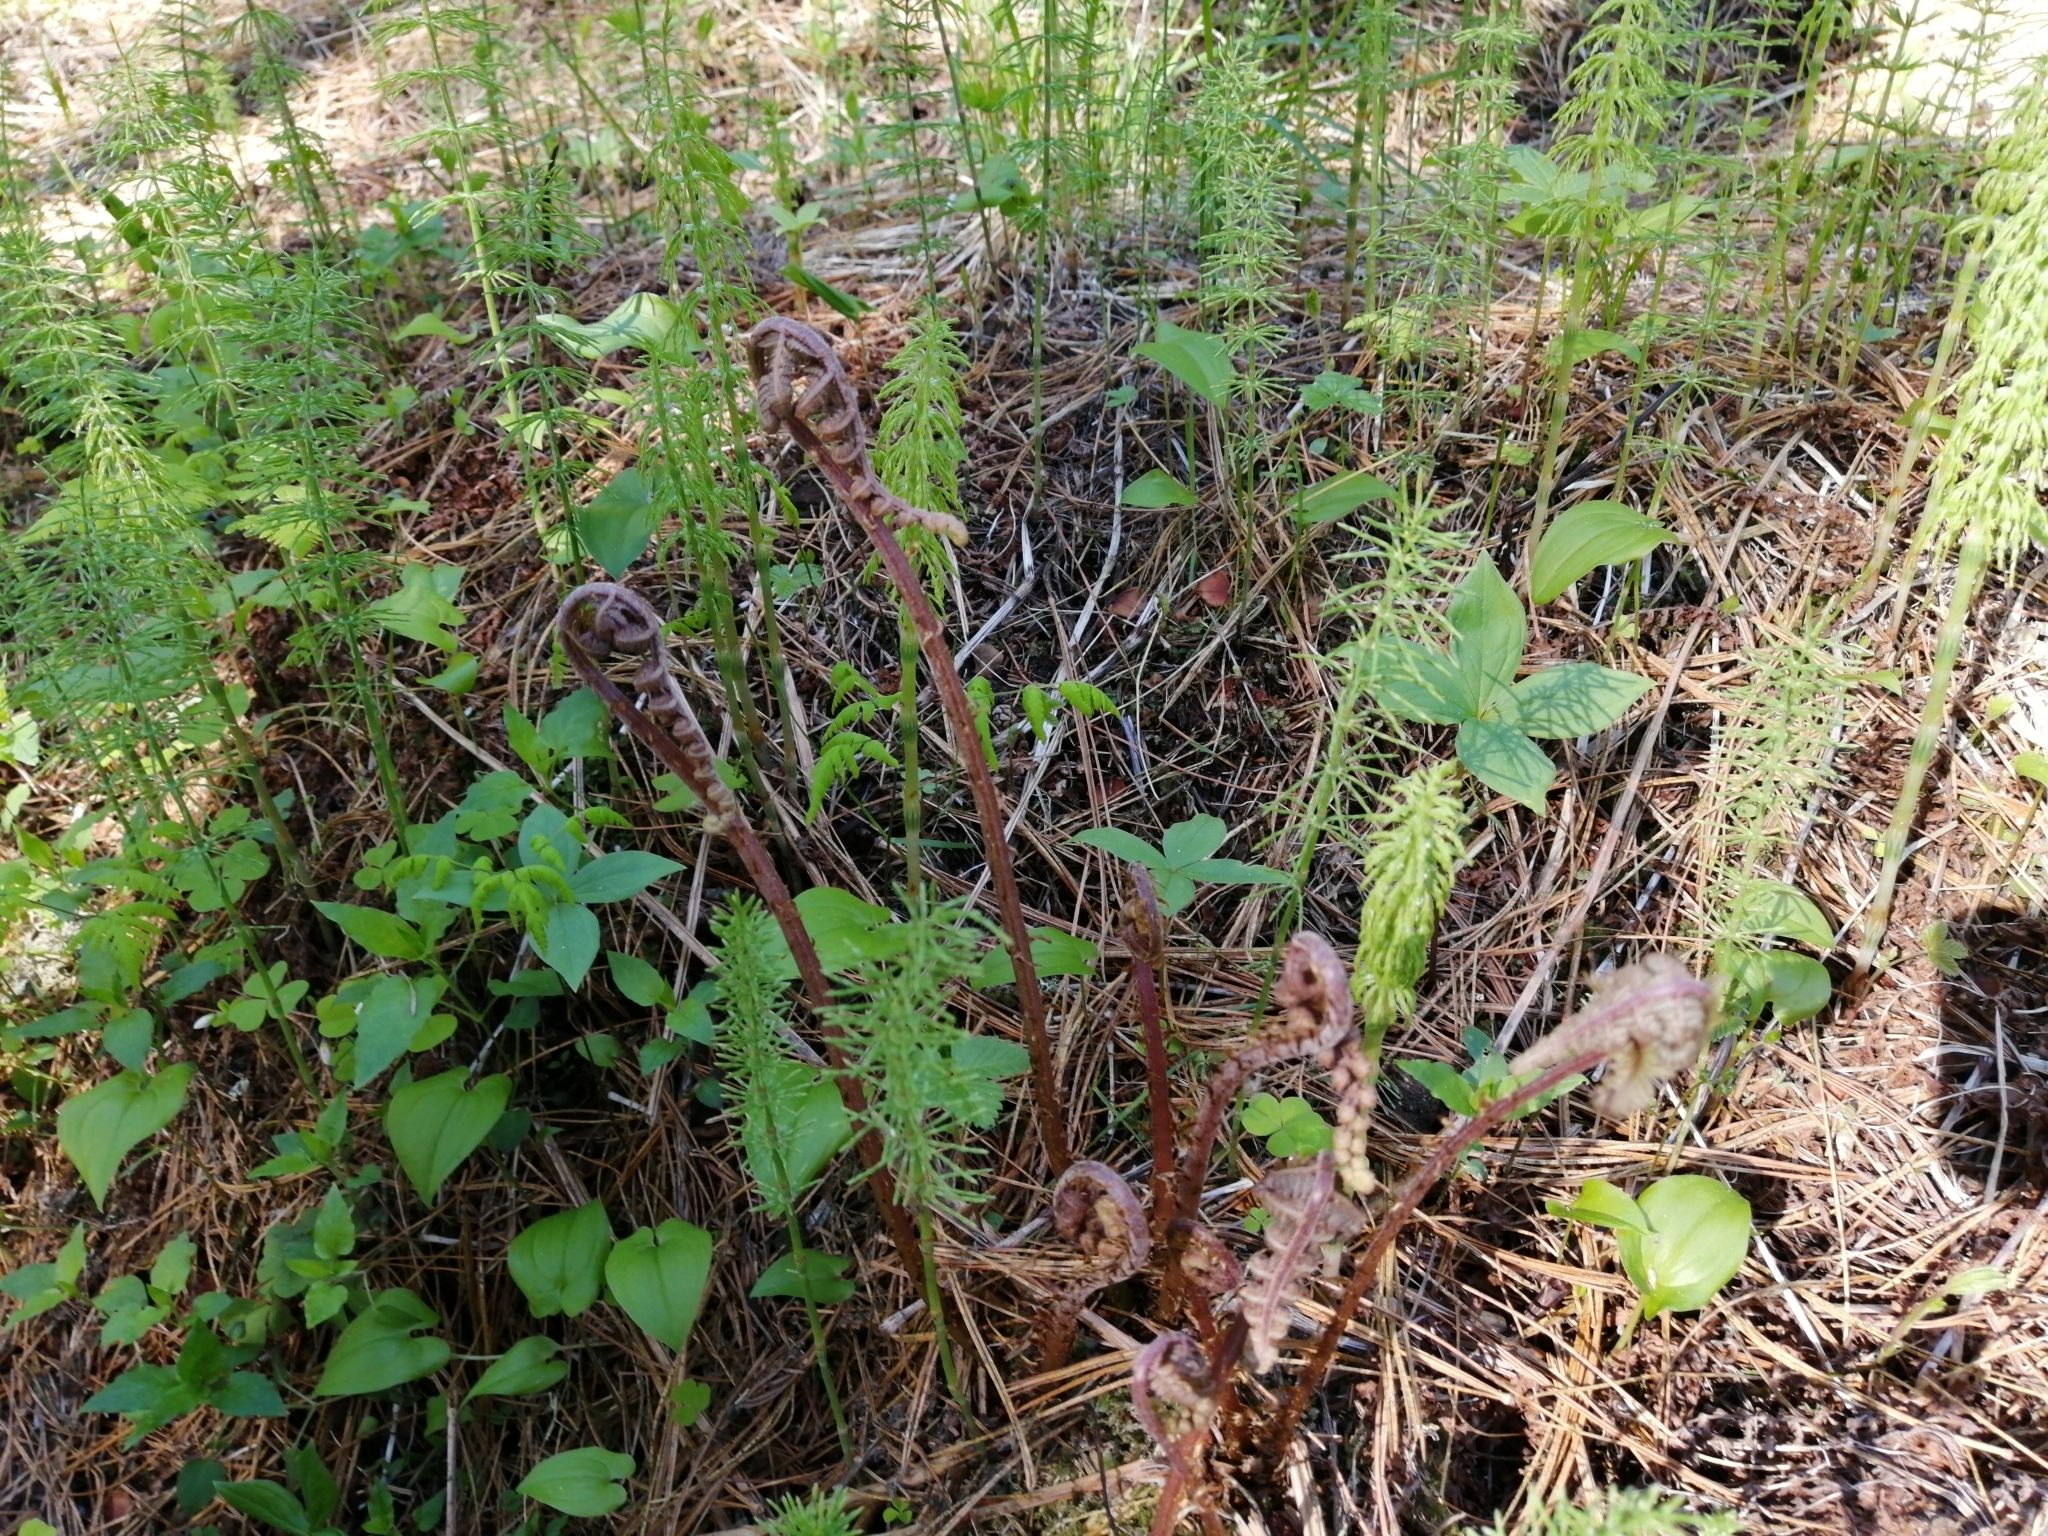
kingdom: Plantae
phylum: Tracheophyta
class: Polypodiopsida
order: Polypodiales
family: Athyriaceae
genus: Athyrium
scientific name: Athyrium filix-femina
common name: Lady fern
